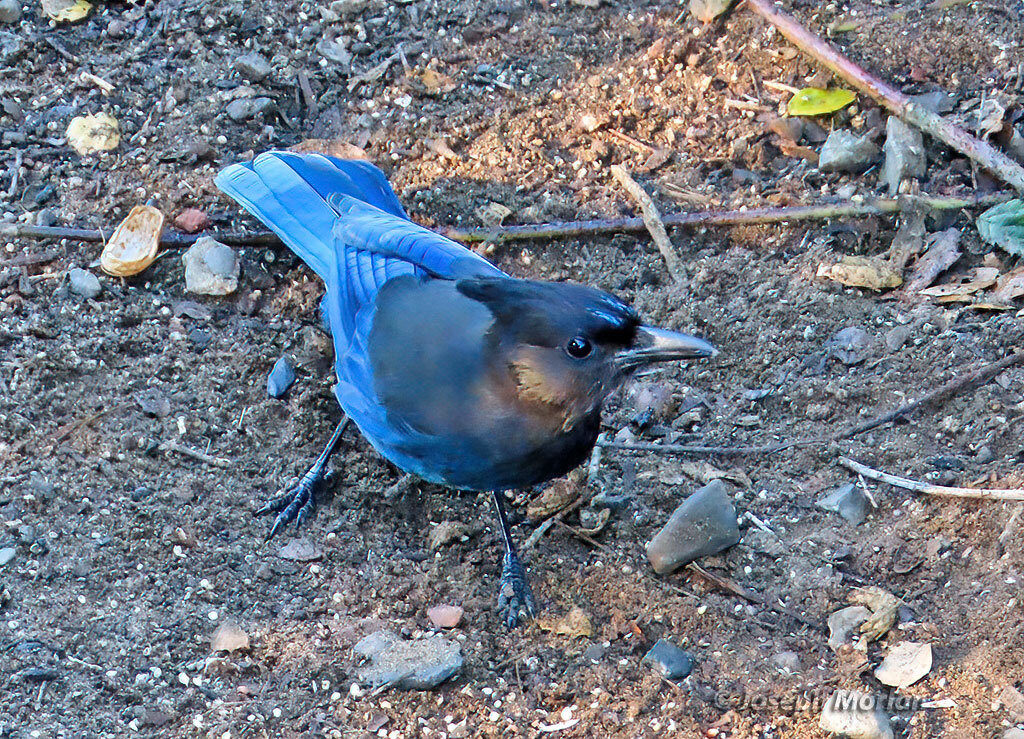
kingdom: Animalia
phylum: Chordata
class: Aves
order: Passeriformes
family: Corvidae
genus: Cyanocitta
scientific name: Cyanocitta stelleri
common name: Steller's jay
